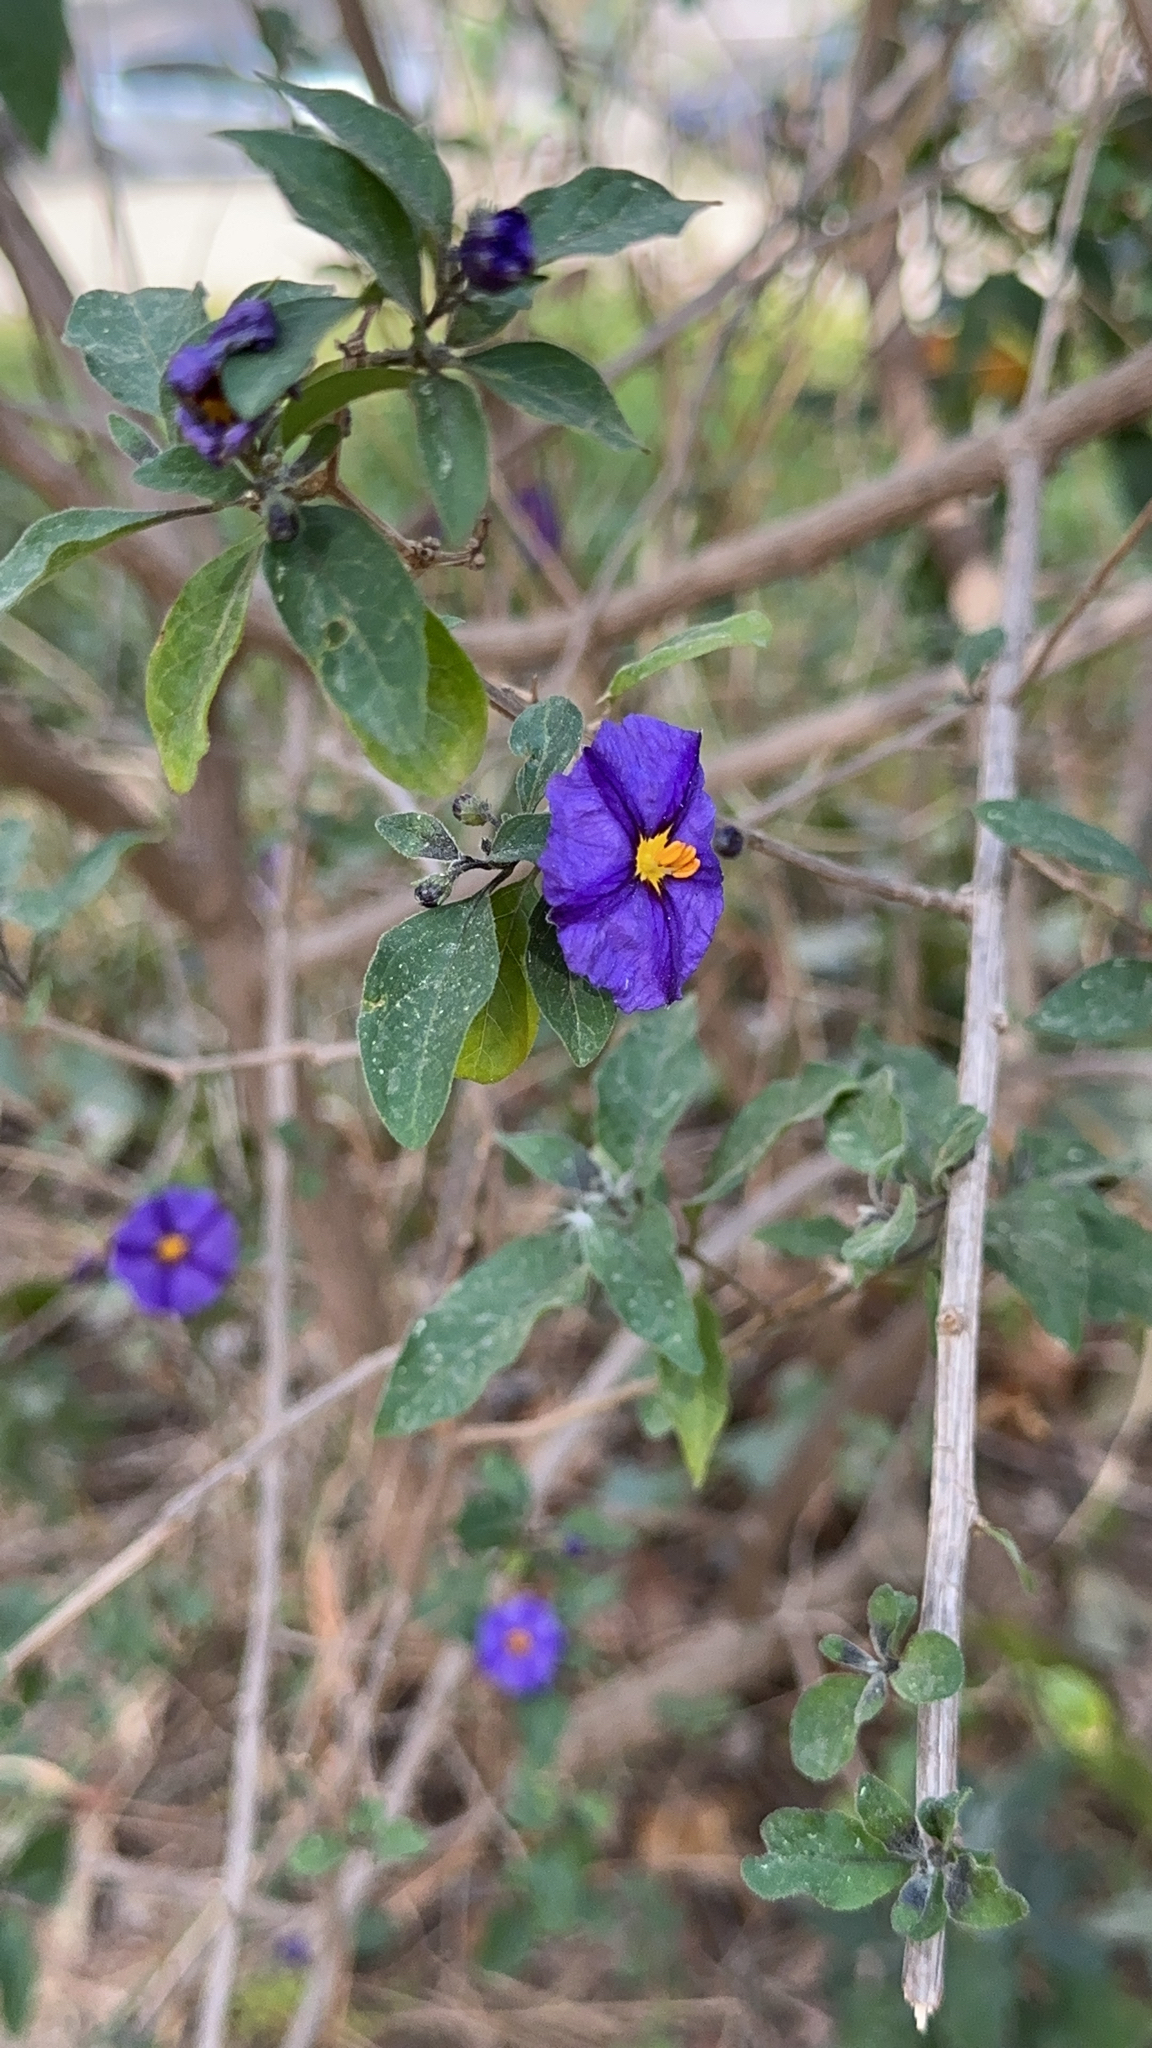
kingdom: Plantae
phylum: Tracheophyta
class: Magnoliopsida
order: Solanales
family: Solanaceae
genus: Lycianthes
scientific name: Lycianthes rantonnetii
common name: Blue potatobush
